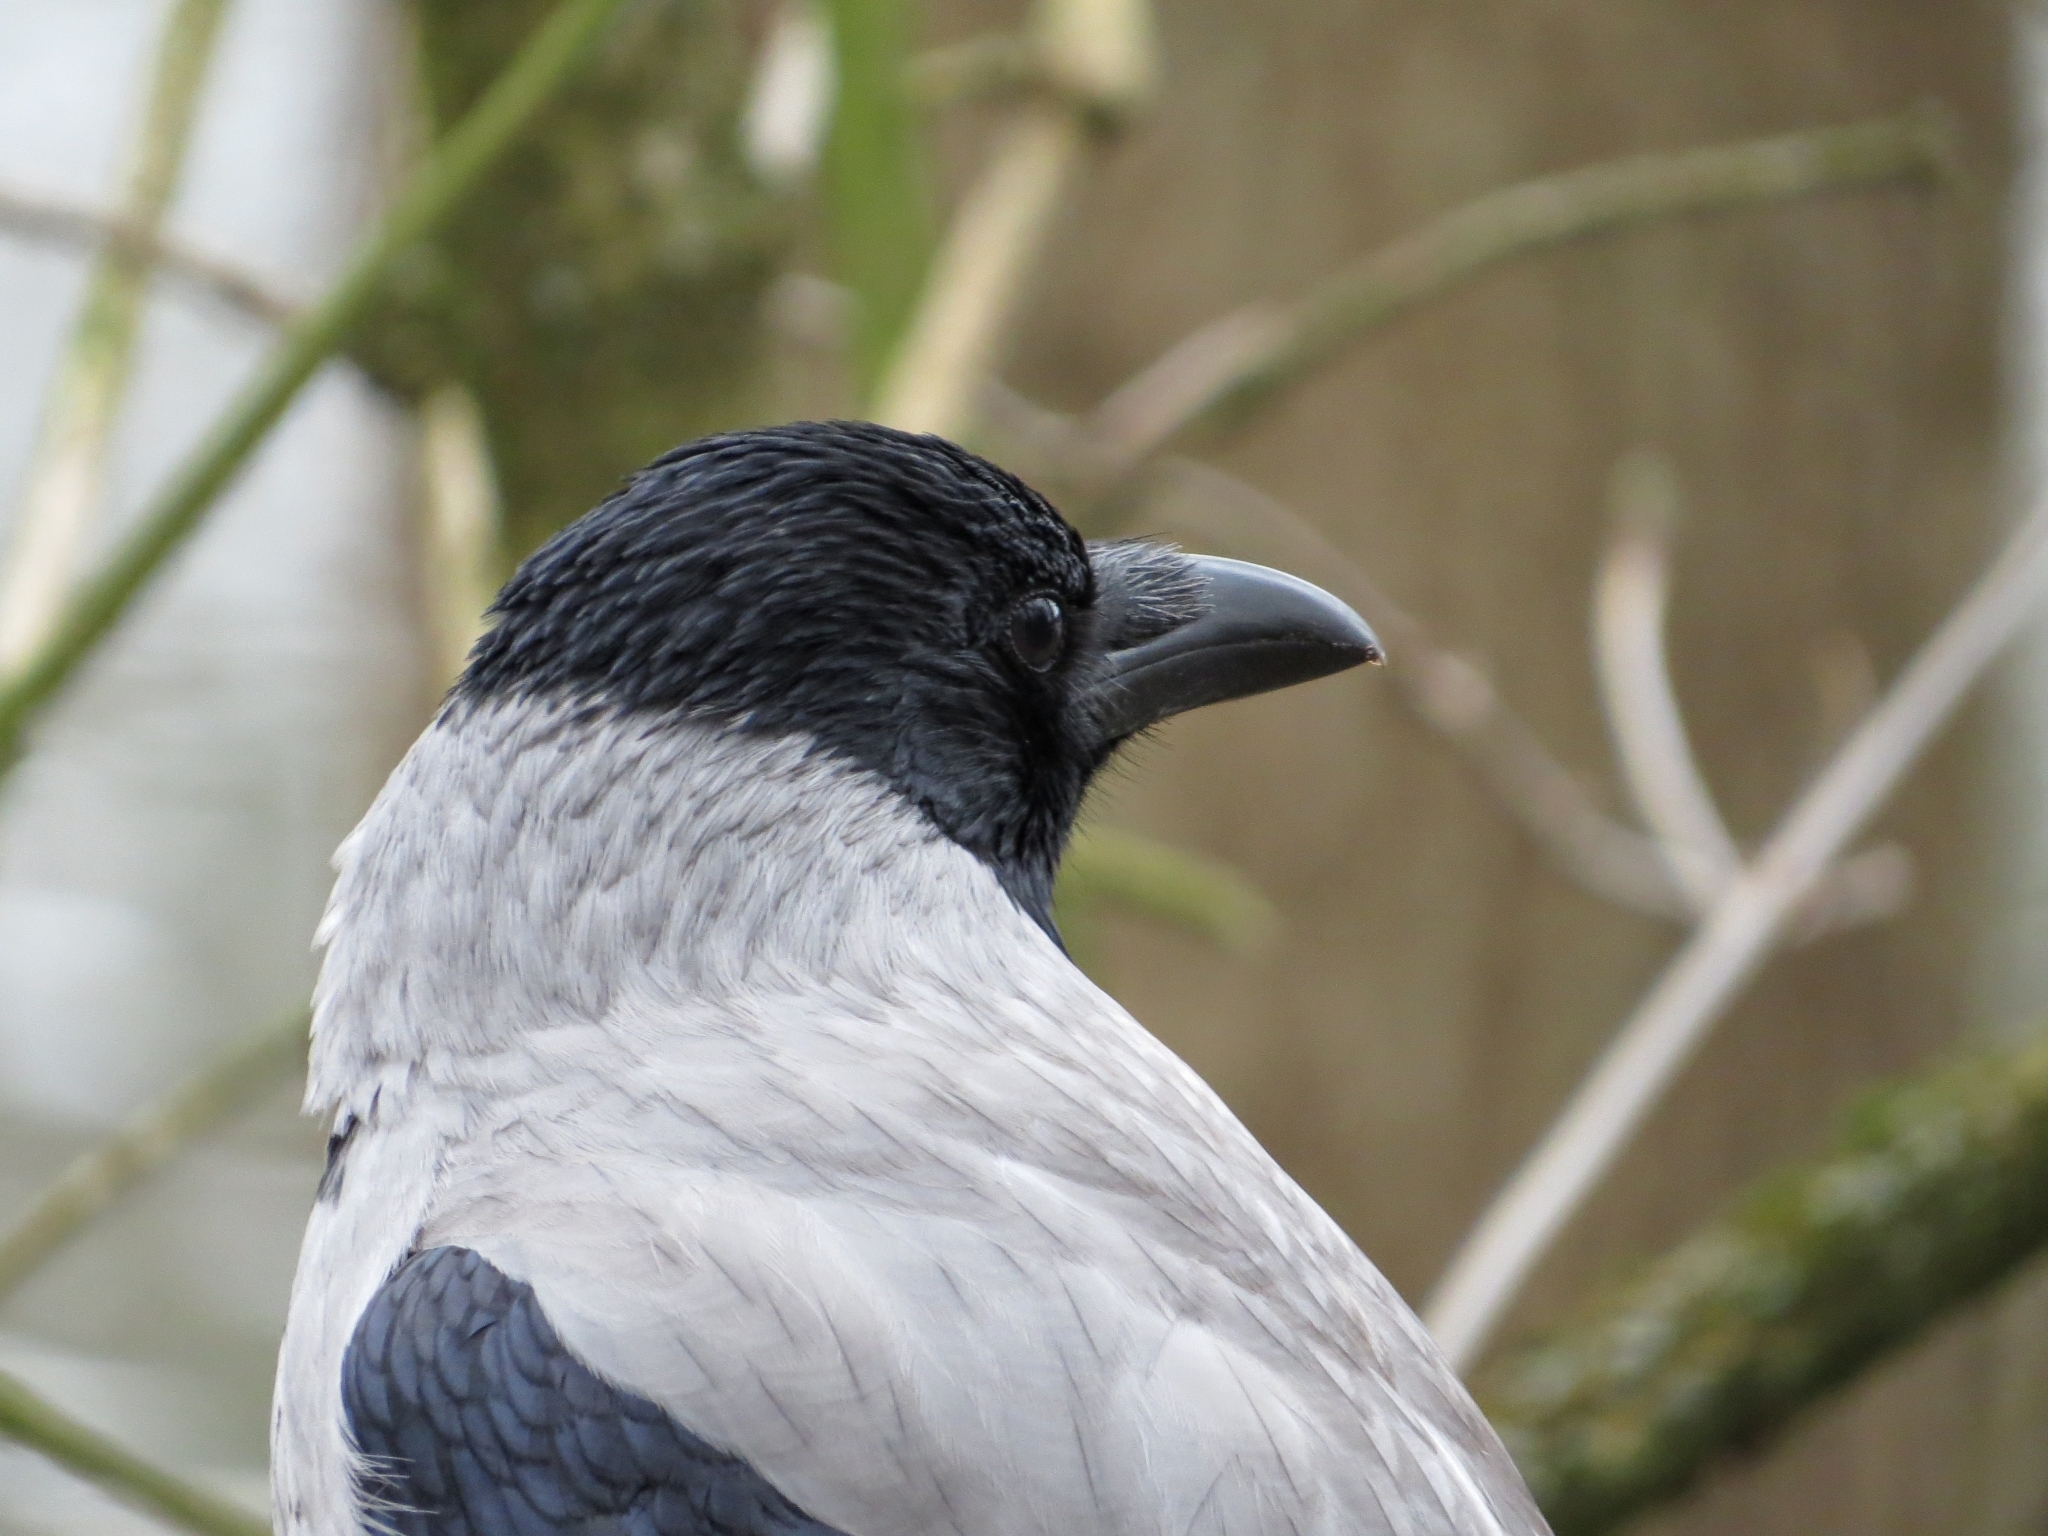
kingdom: Animalia
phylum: Chordata
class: Aves
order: Passeriformes
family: Corvidae
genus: Corvus
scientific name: Corvus cornix
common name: Hooded crow
